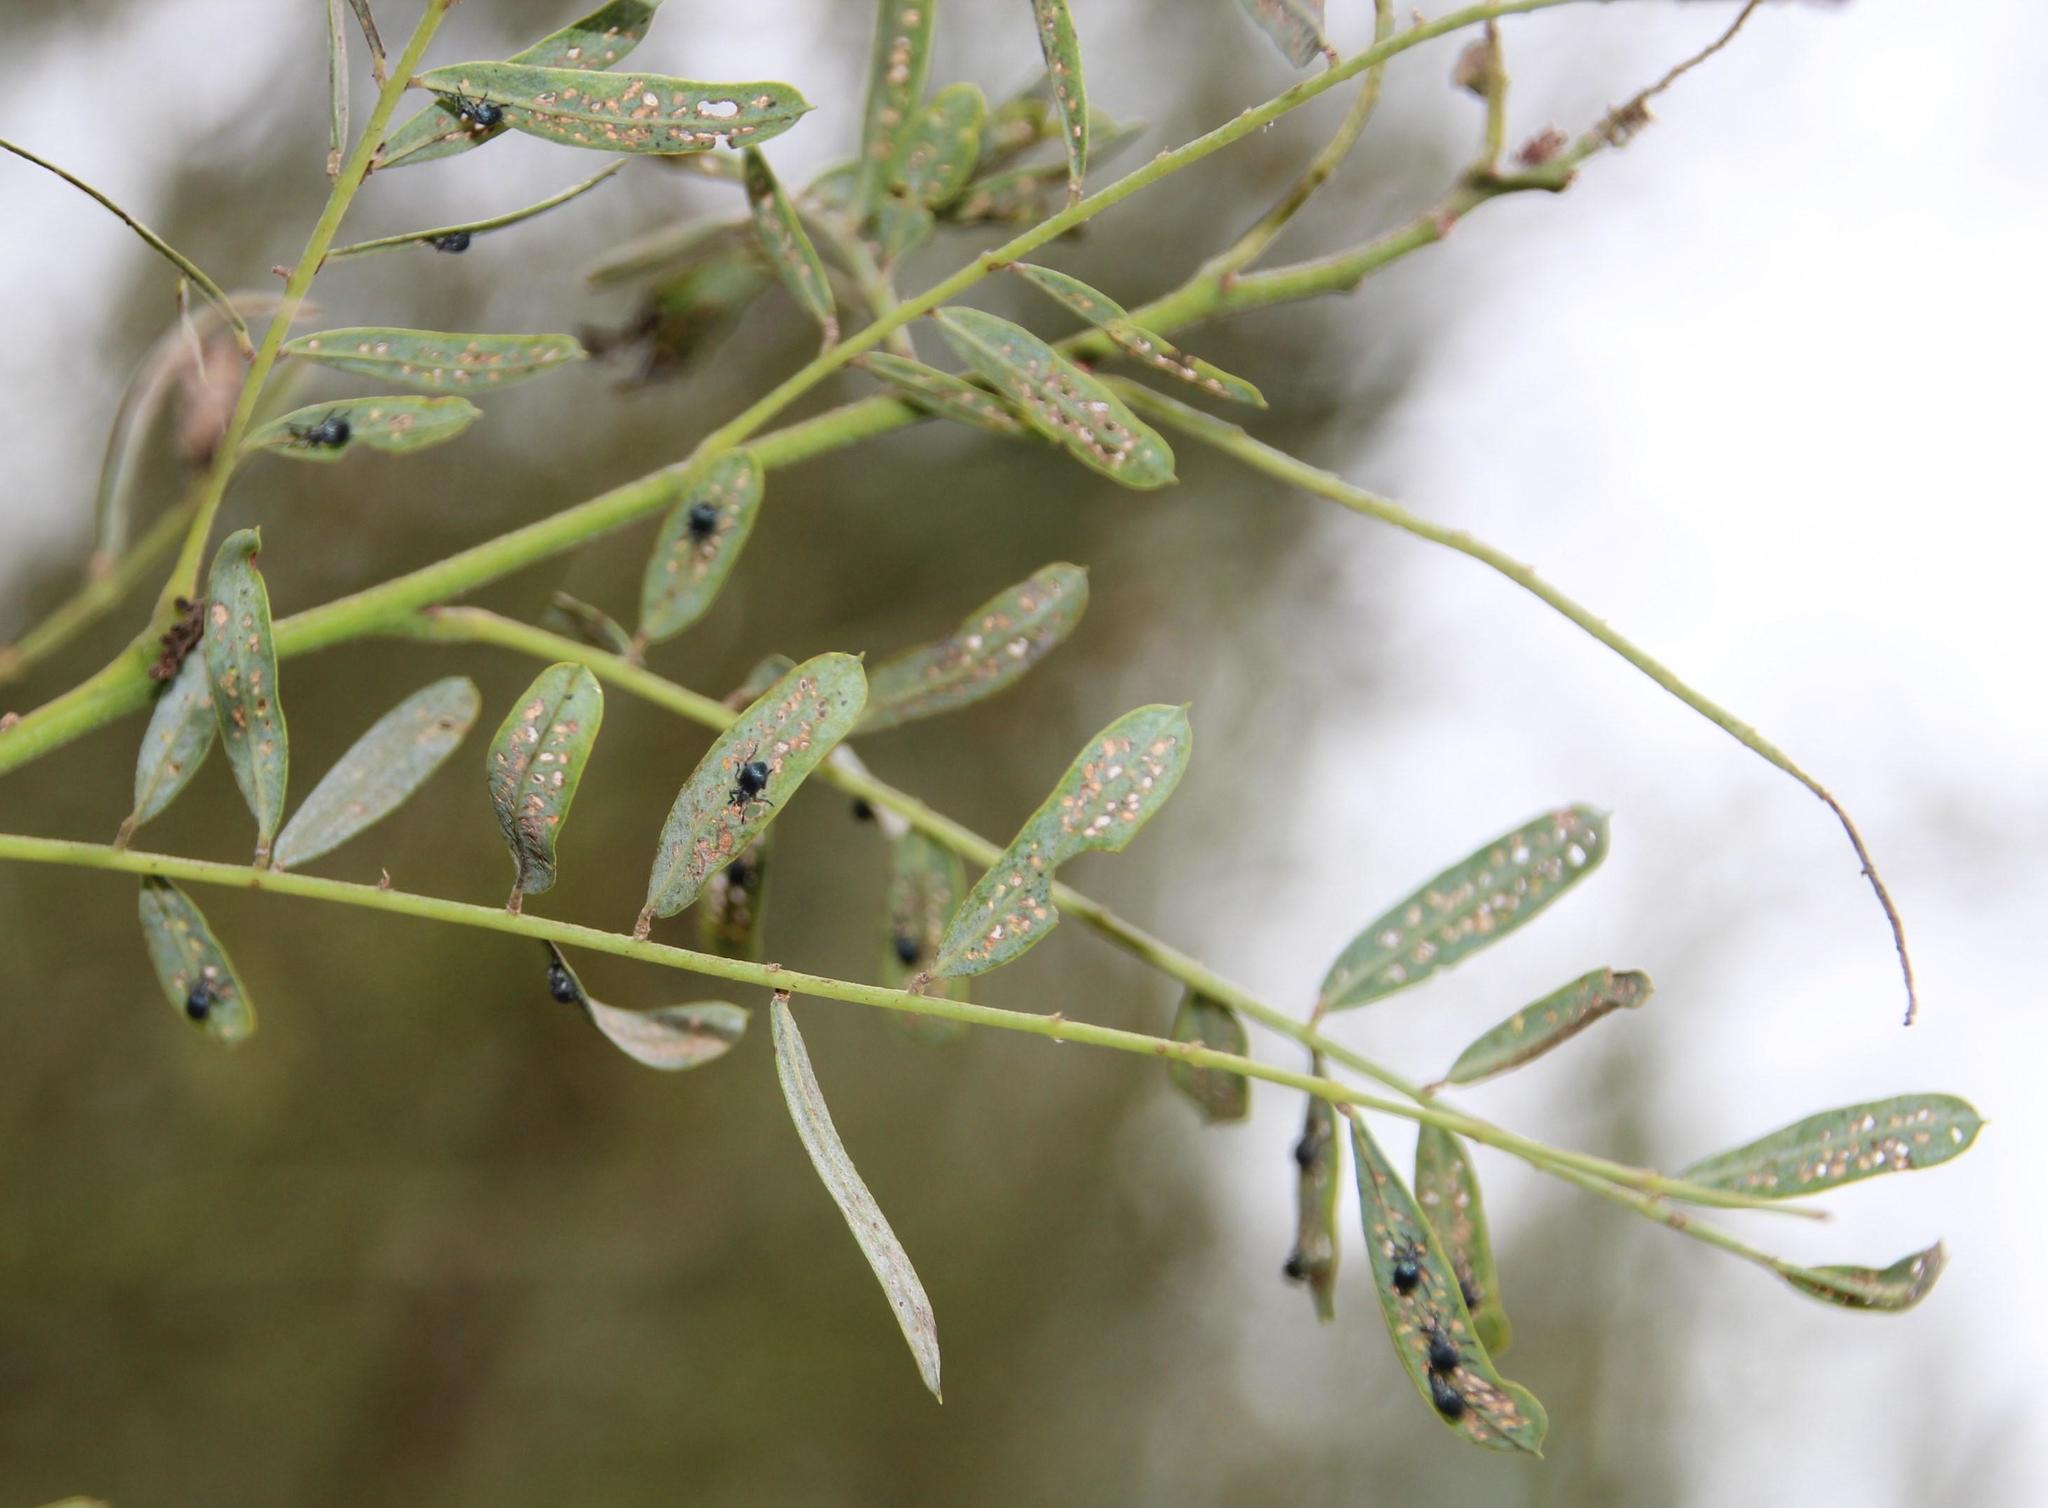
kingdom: Plantae
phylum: Tracheophyta
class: Magnoliopsida
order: Fabales
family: Fabaceae
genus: Sesbania
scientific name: Sesbania punicea
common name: Rattlebox
